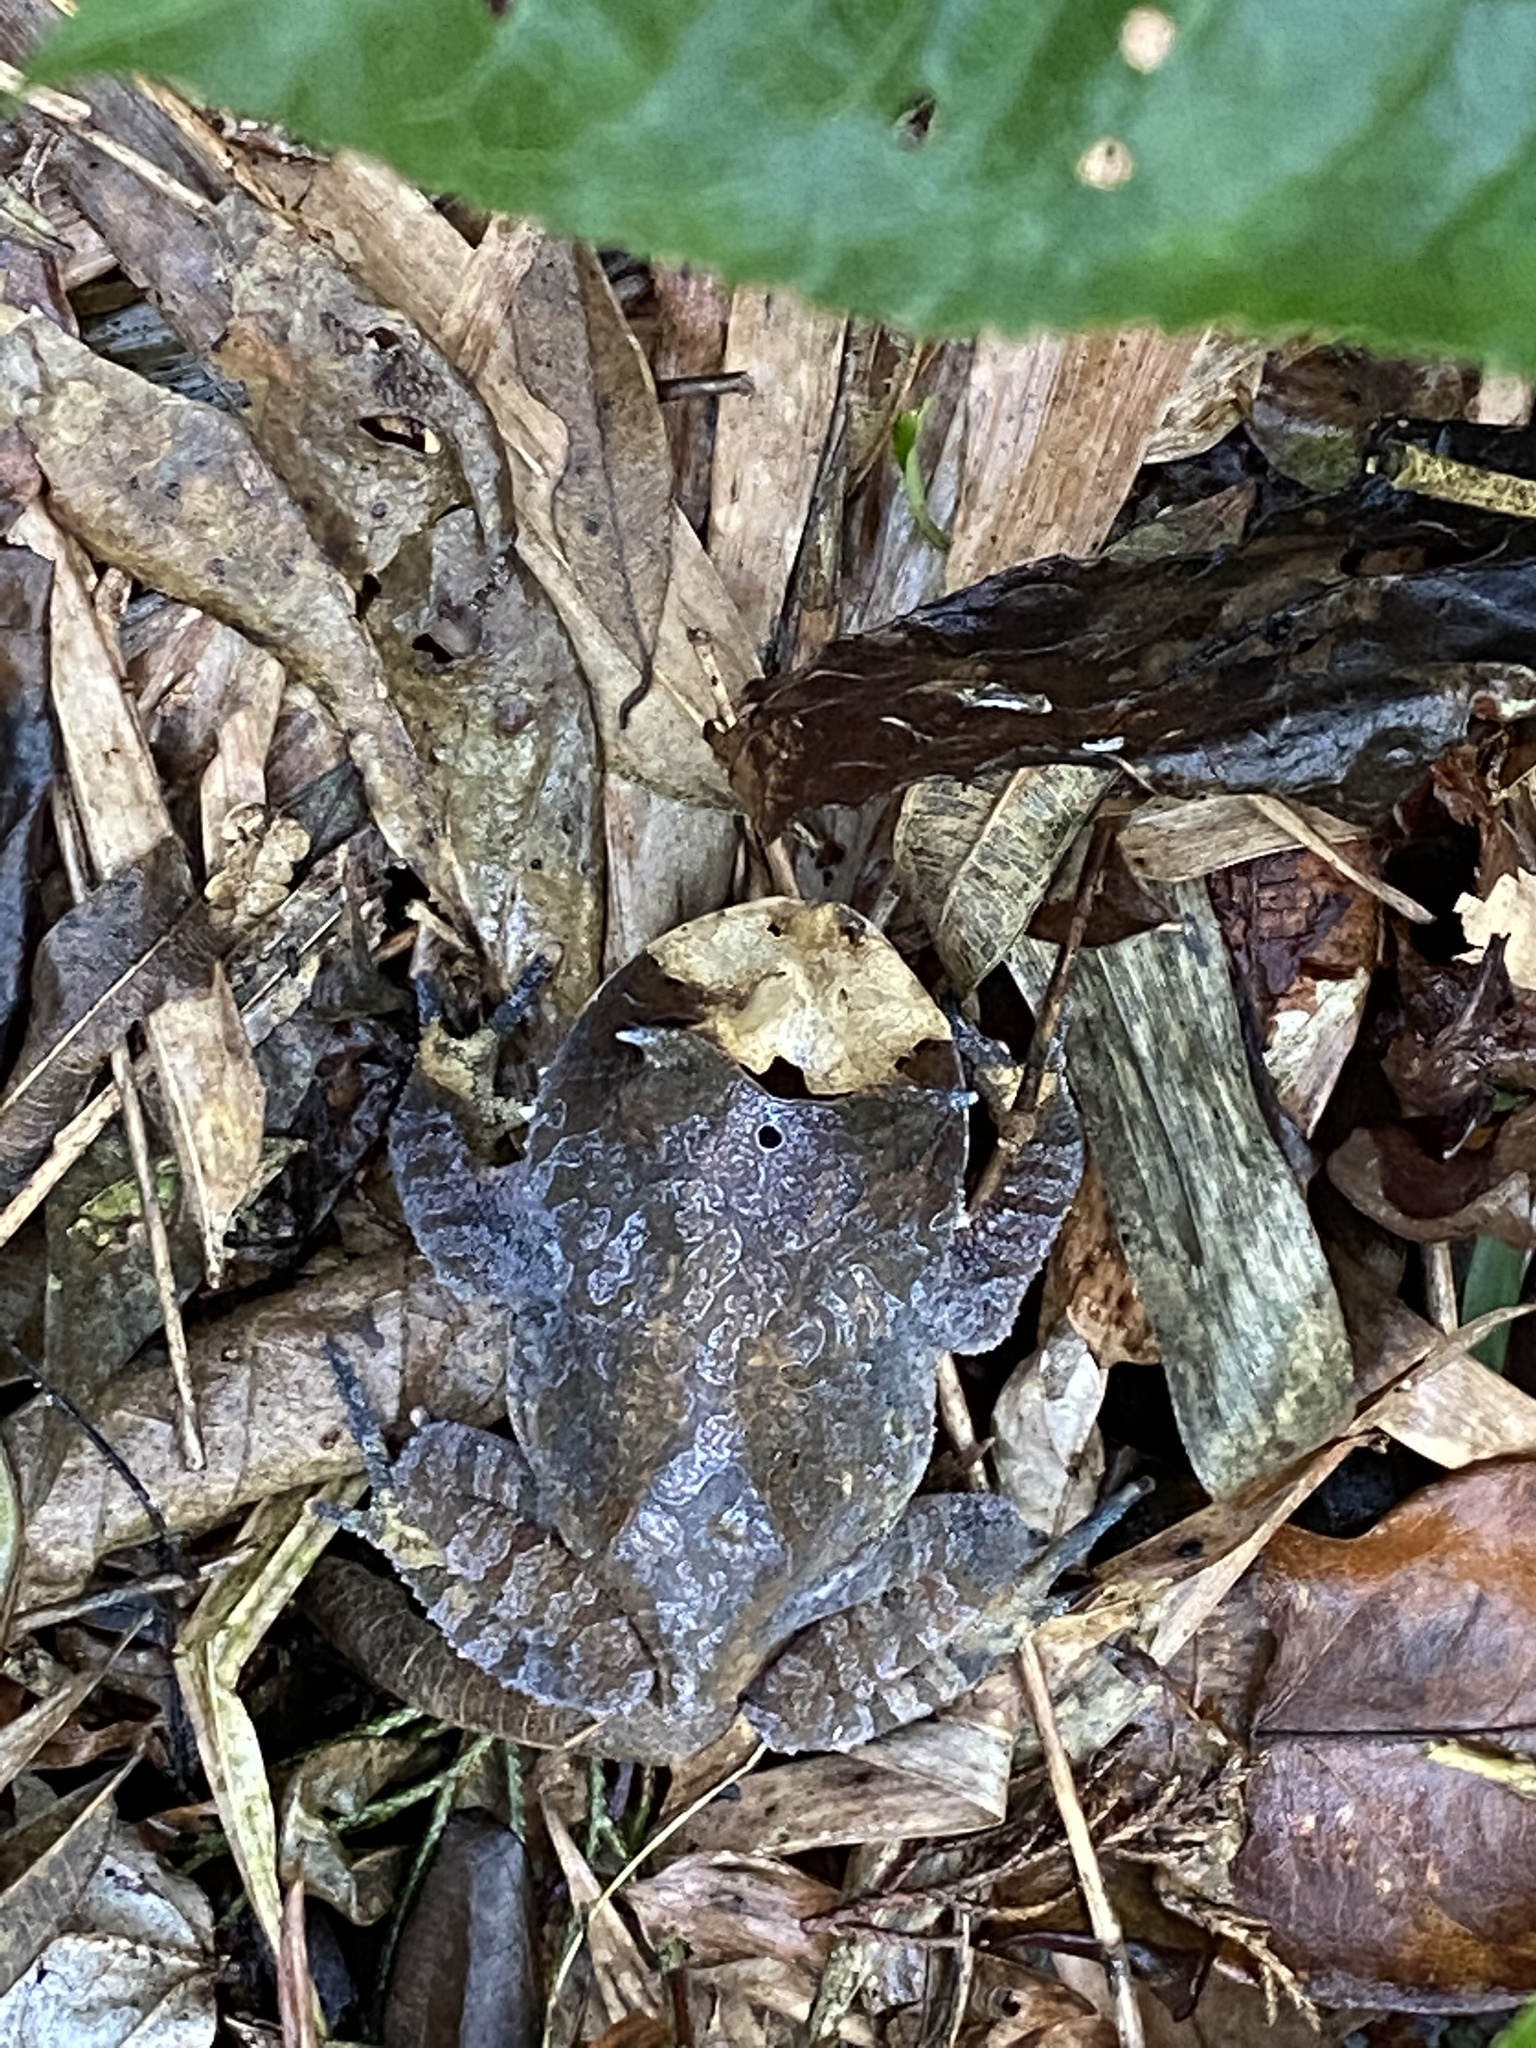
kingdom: Animalia
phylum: Chordata
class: Amphibia
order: Anura
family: Odontophrynidae
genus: Proceratophrys
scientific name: Proceratophrys boiei
